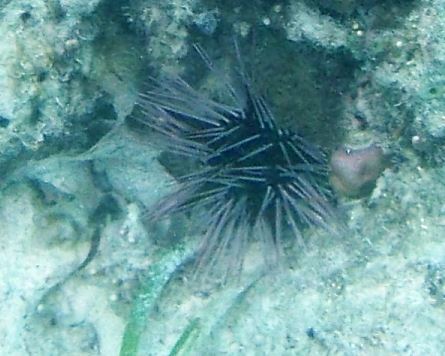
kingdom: Animalia
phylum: Echinodermata
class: Echinoidea
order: Diadematoida
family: Diadematidae
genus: Echinothrix
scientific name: Echinothrix calamaris
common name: Banded sea urchin
